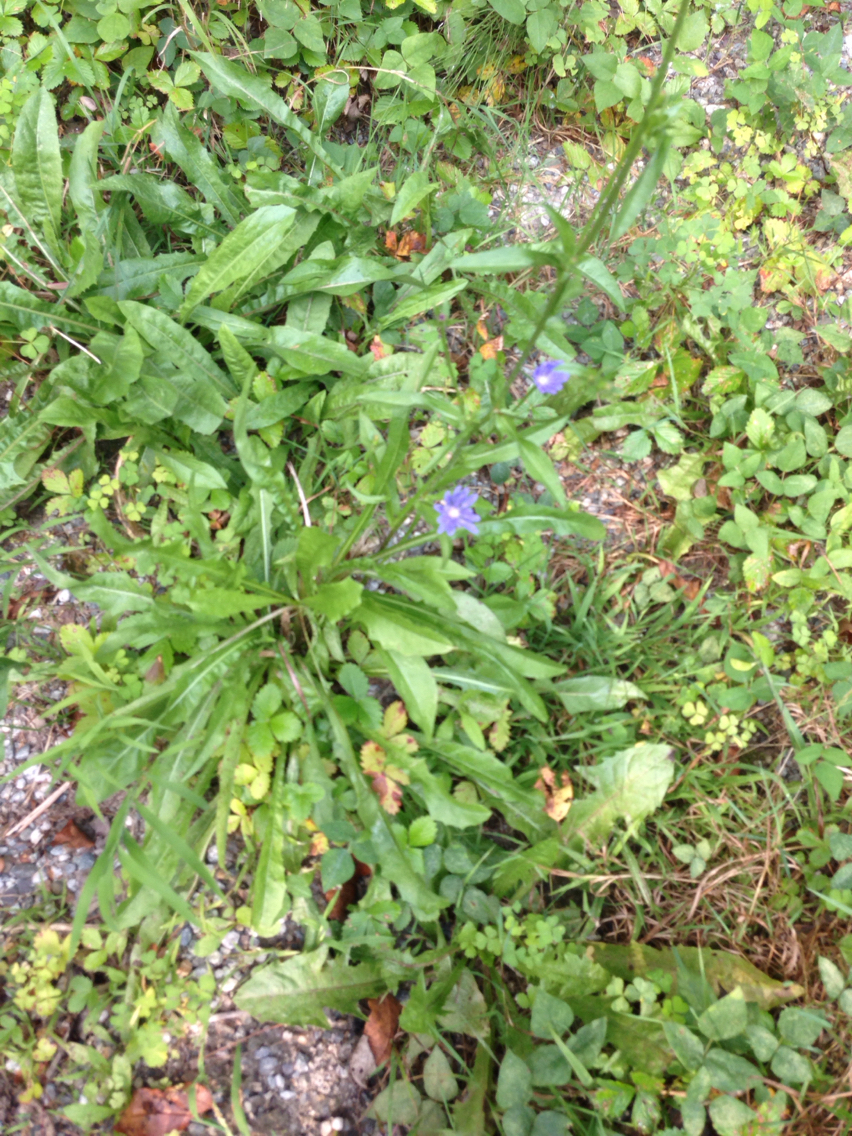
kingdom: Plantae
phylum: Tracheophyta
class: Magnoliopsida
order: Asterales
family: Asteraceae
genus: Cichorium
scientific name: Cichorium intybus
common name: Chicory
